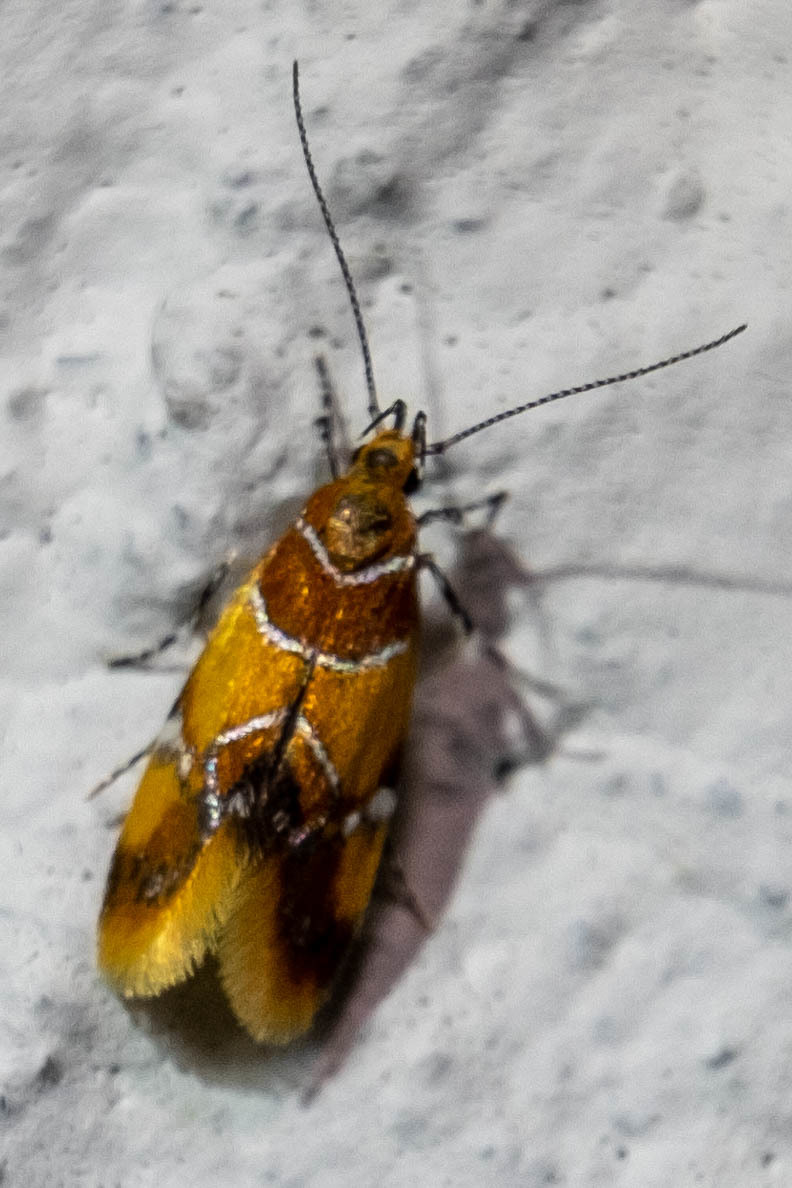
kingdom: Animalia
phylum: Arthropoda
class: Insecta
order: Lepidoptera
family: Oecophoridae
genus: Callima
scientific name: Callima argenticinctella
